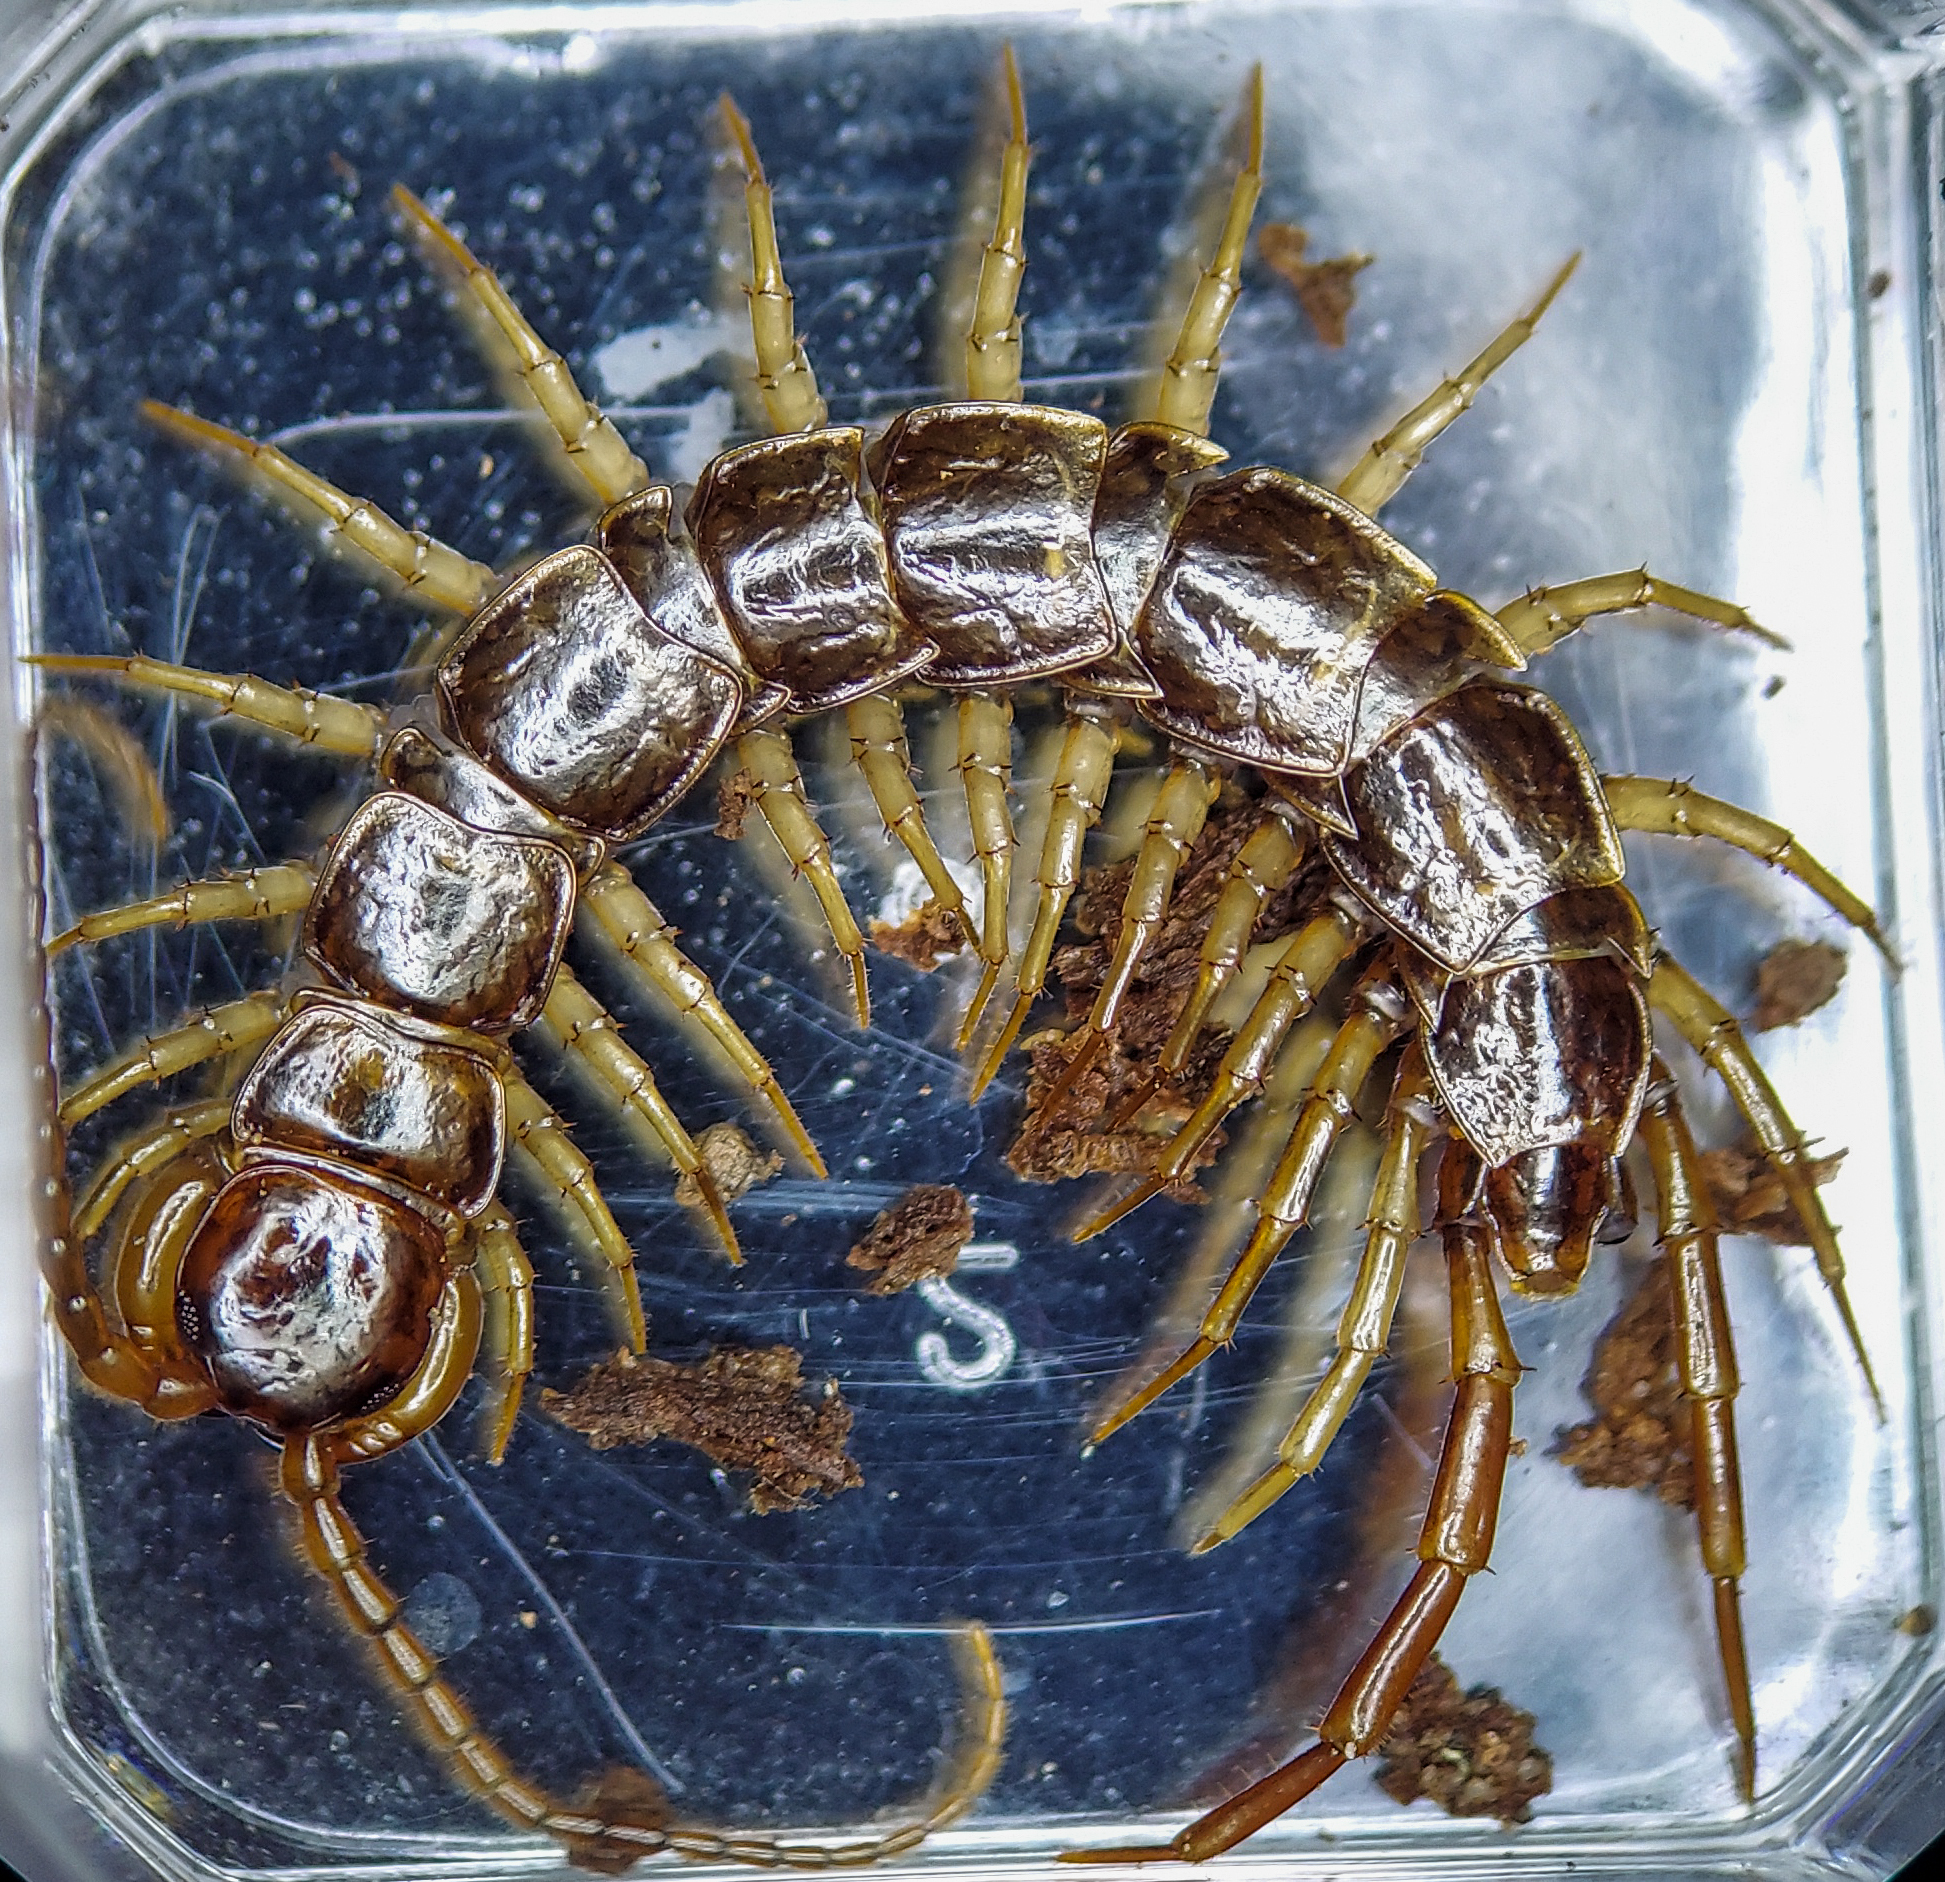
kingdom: Animalia
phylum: Arthropoda
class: Chilopoda
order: Lithobiomorpha
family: Lithobiidae
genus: Bothropolys
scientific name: Bothropolys multidentatus
